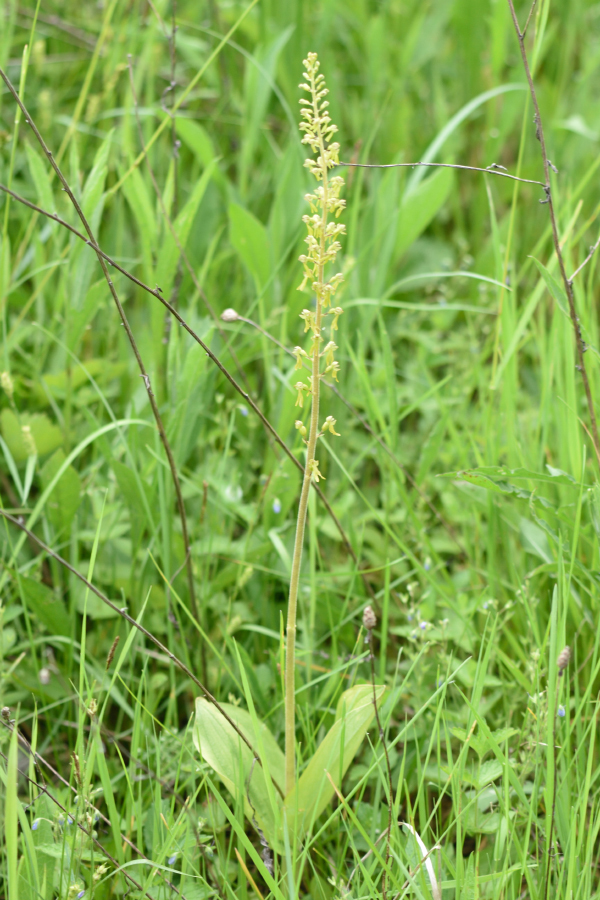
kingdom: Plantae
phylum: Tracheophyta
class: Liliopsida
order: Asparagales
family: Orchidaceae
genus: Neottia
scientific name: Neottia ovata
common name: Common twayblade
